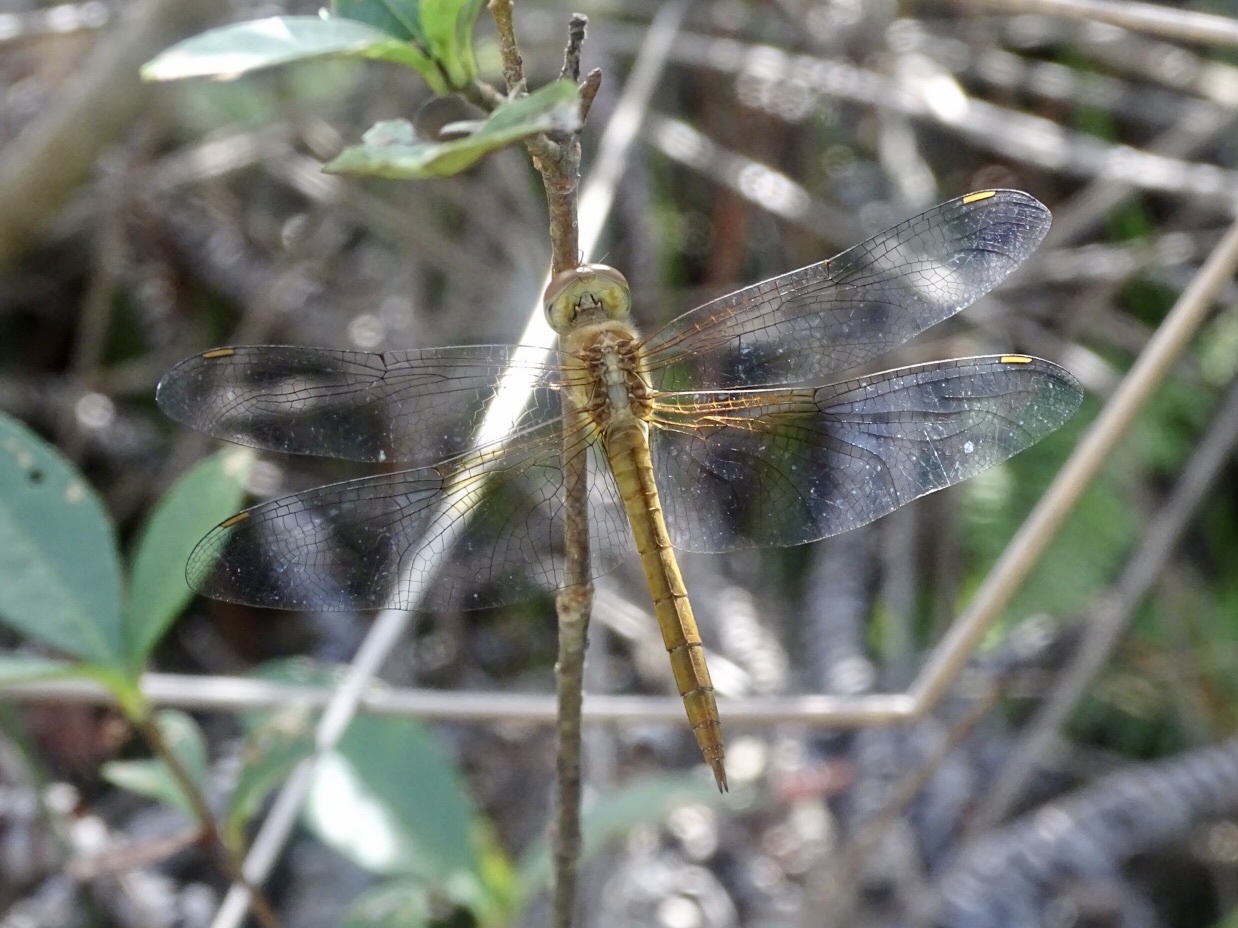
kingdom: Animalia
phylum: Arthropoda
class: Insecta
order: Odonata
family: Libellulidae
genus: Tholymis
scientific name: Tholymis tillarga
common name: Coral-tailed cloud wing
